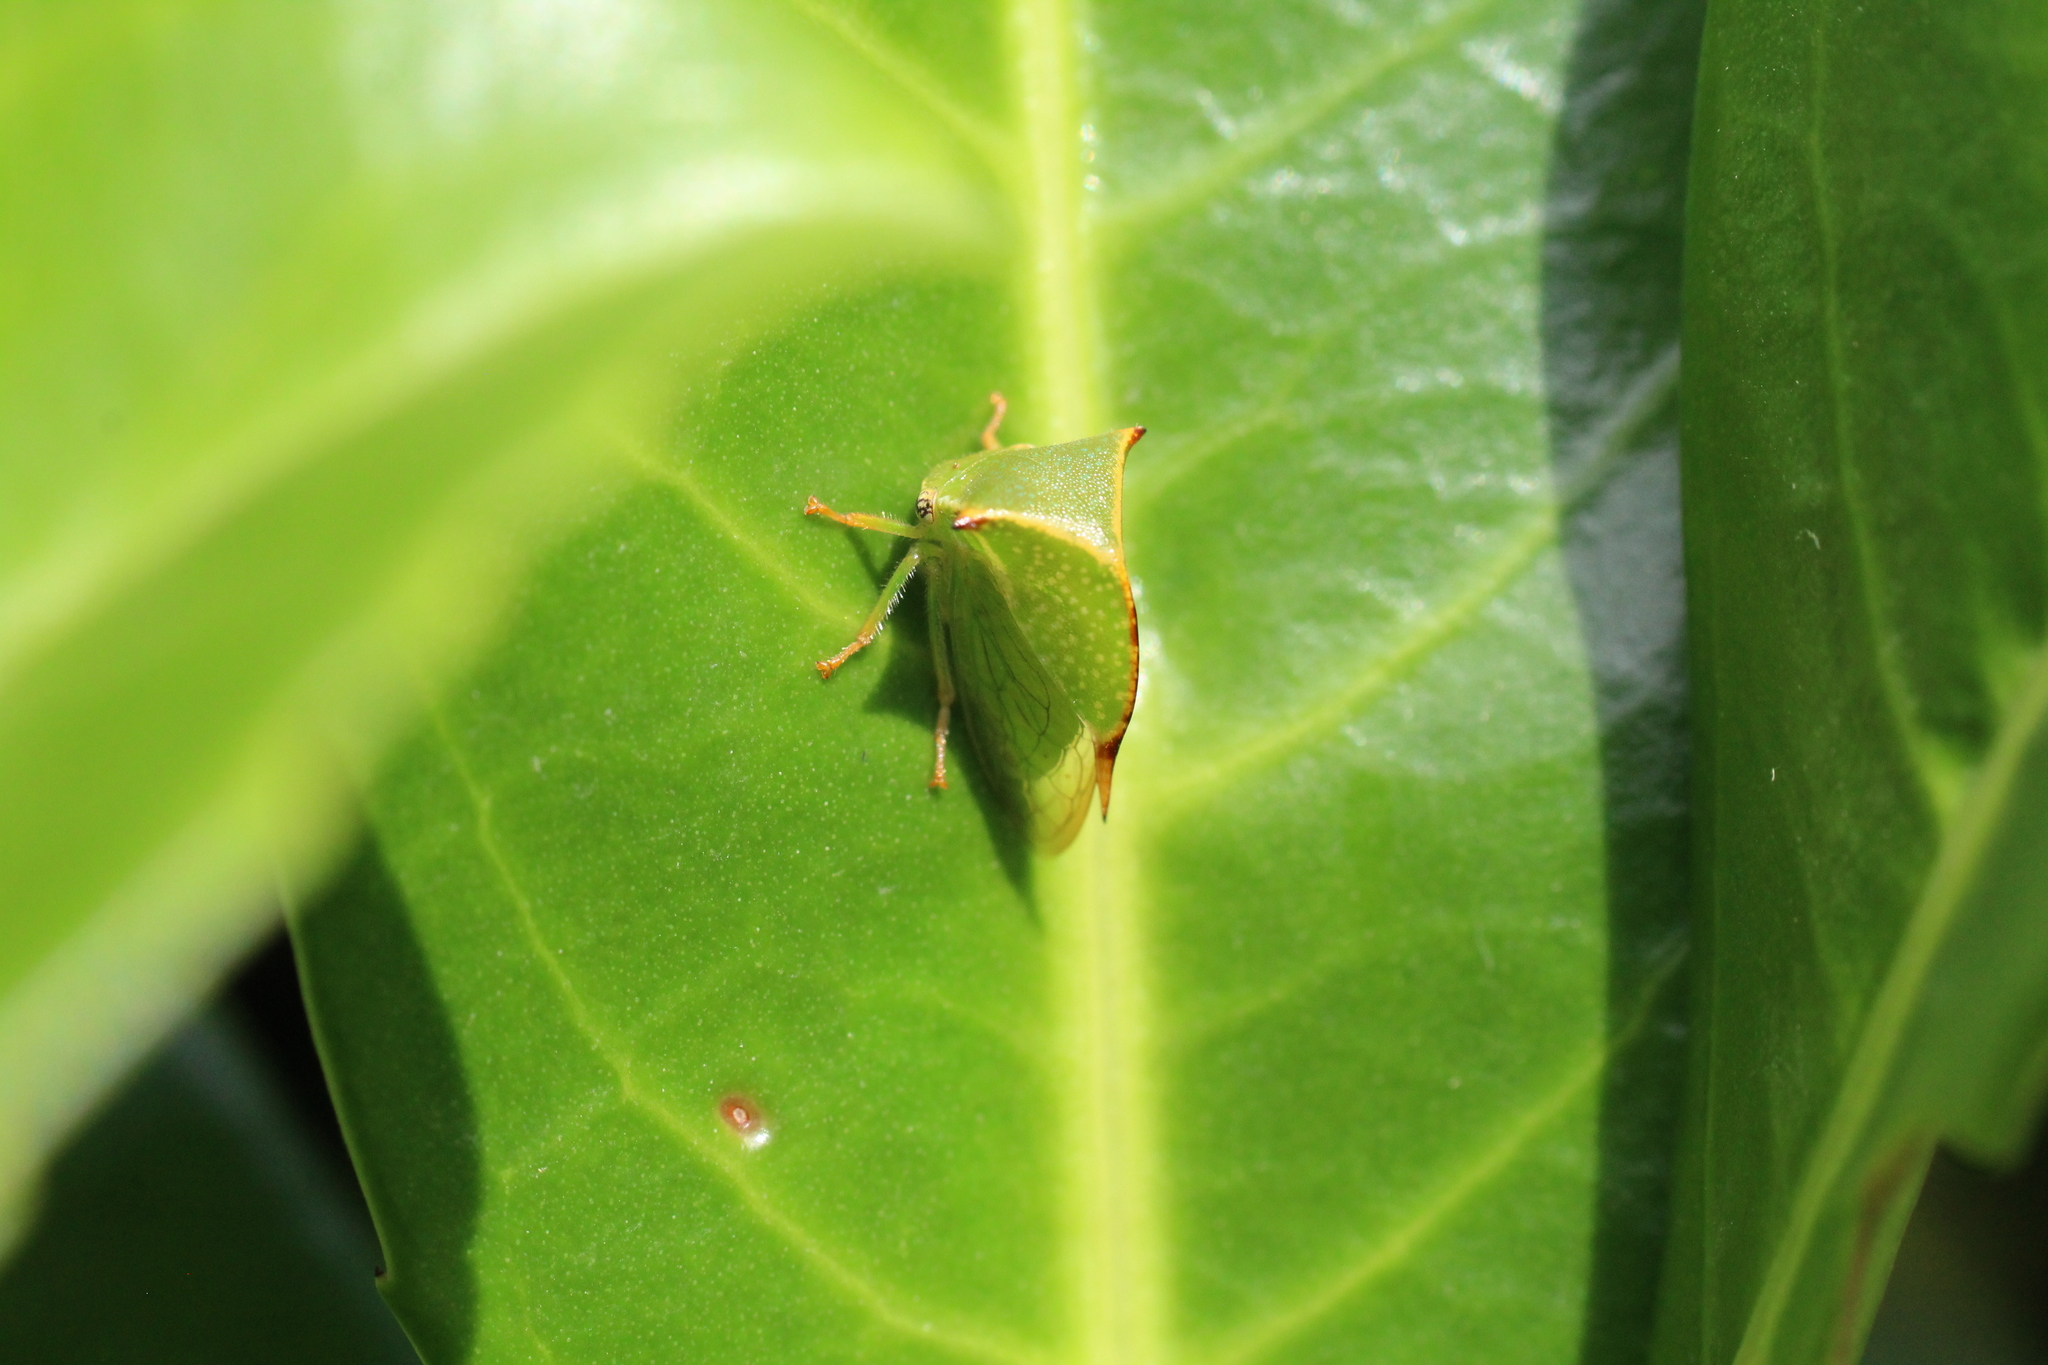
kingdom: Animalia
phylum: Arthropoda
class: Insecta
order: Hemiptera
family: Membracidae
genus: Stictocephala
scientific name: Stictocephala bisonia
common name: American buffalo treehopper
